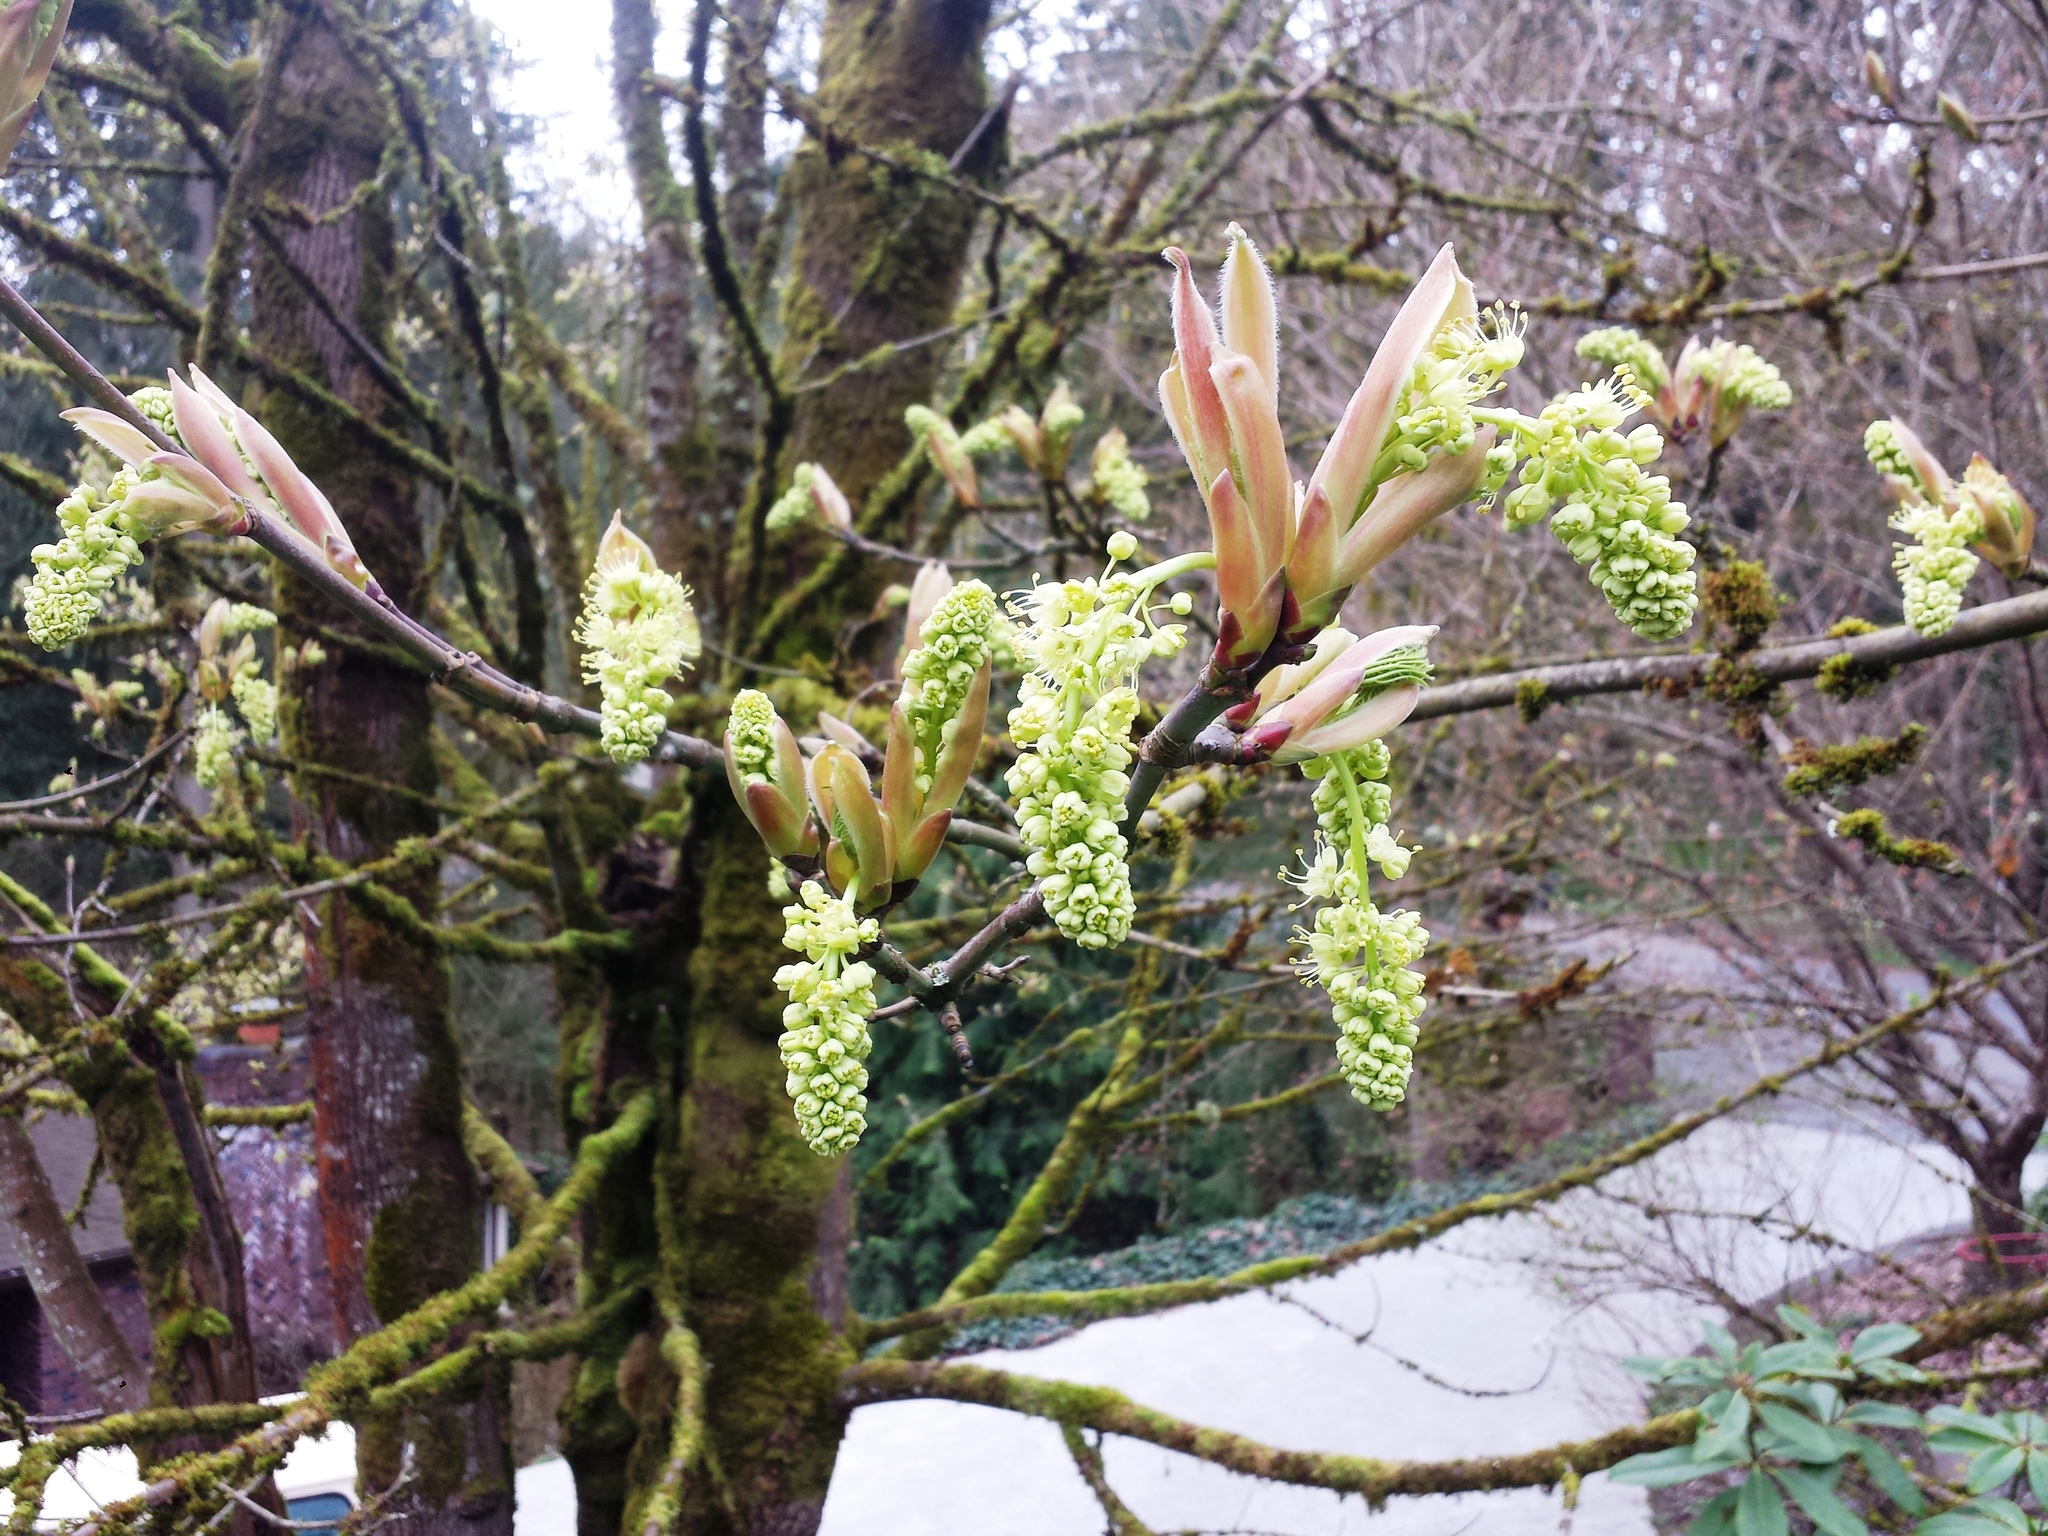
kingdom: Plantae
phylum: Tracheophyta
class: Magnoliopsida
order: Sapindales
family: Sapindaceae
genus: Acer
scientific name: Acer macrophyllum
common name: Oregon maple
